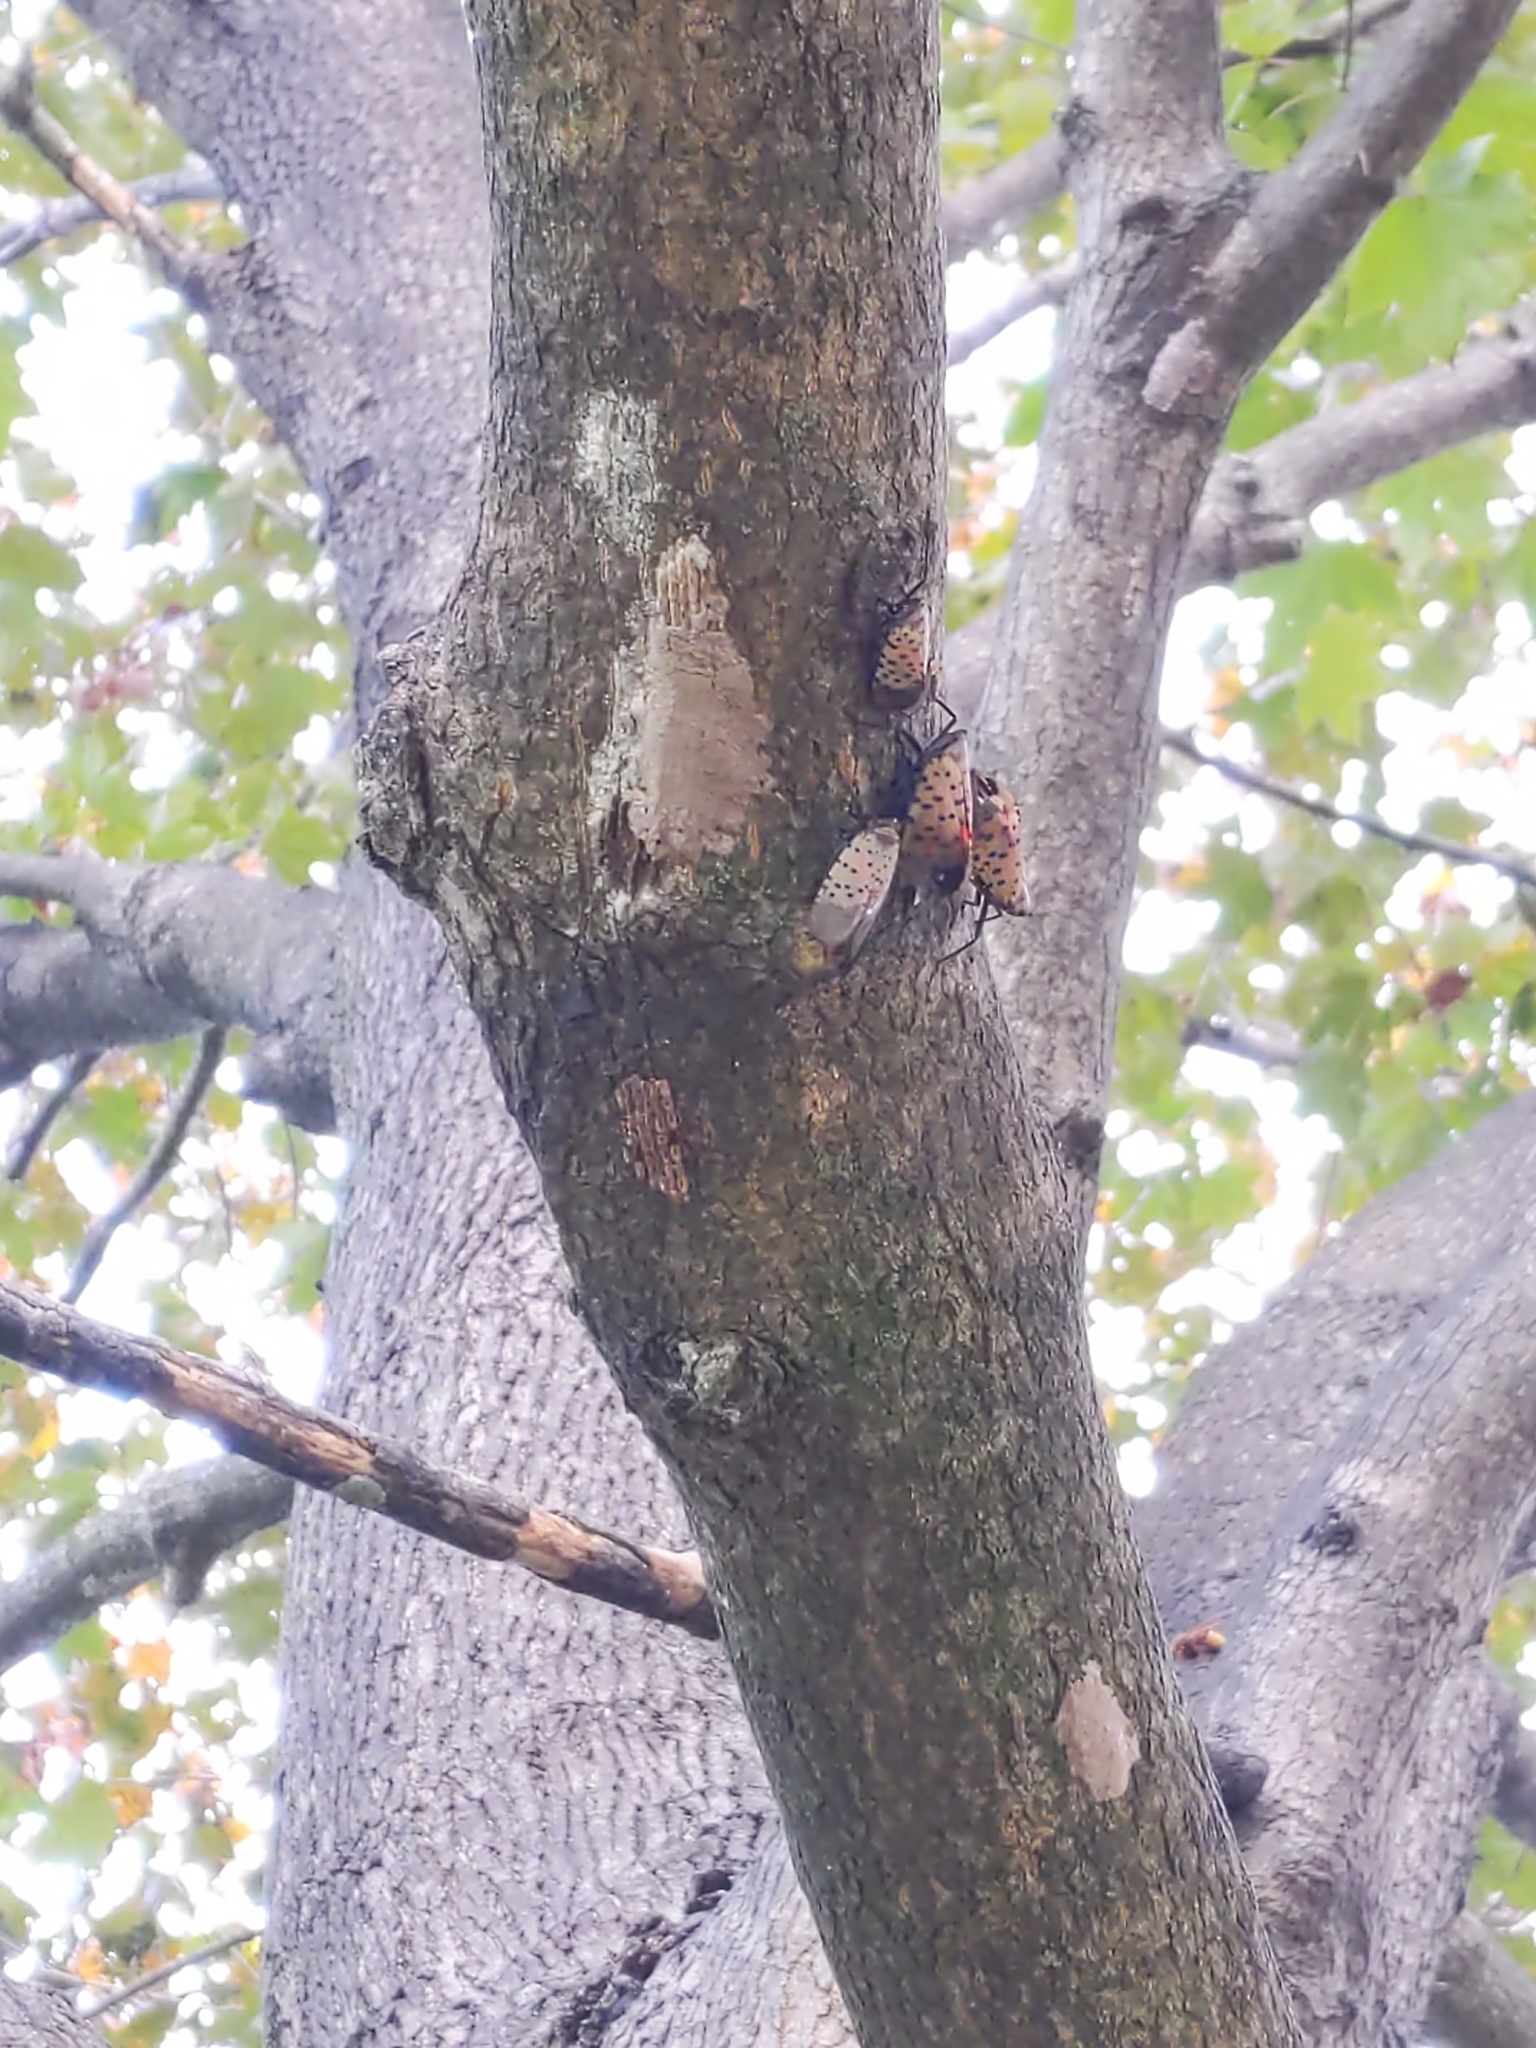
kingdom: Animalia
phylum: Arthropoda
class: Insecta
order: Hemiptera
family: Fulgoridae
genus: Lycorma
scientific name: Lycorma delicatula
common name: Spotted lanternfly
